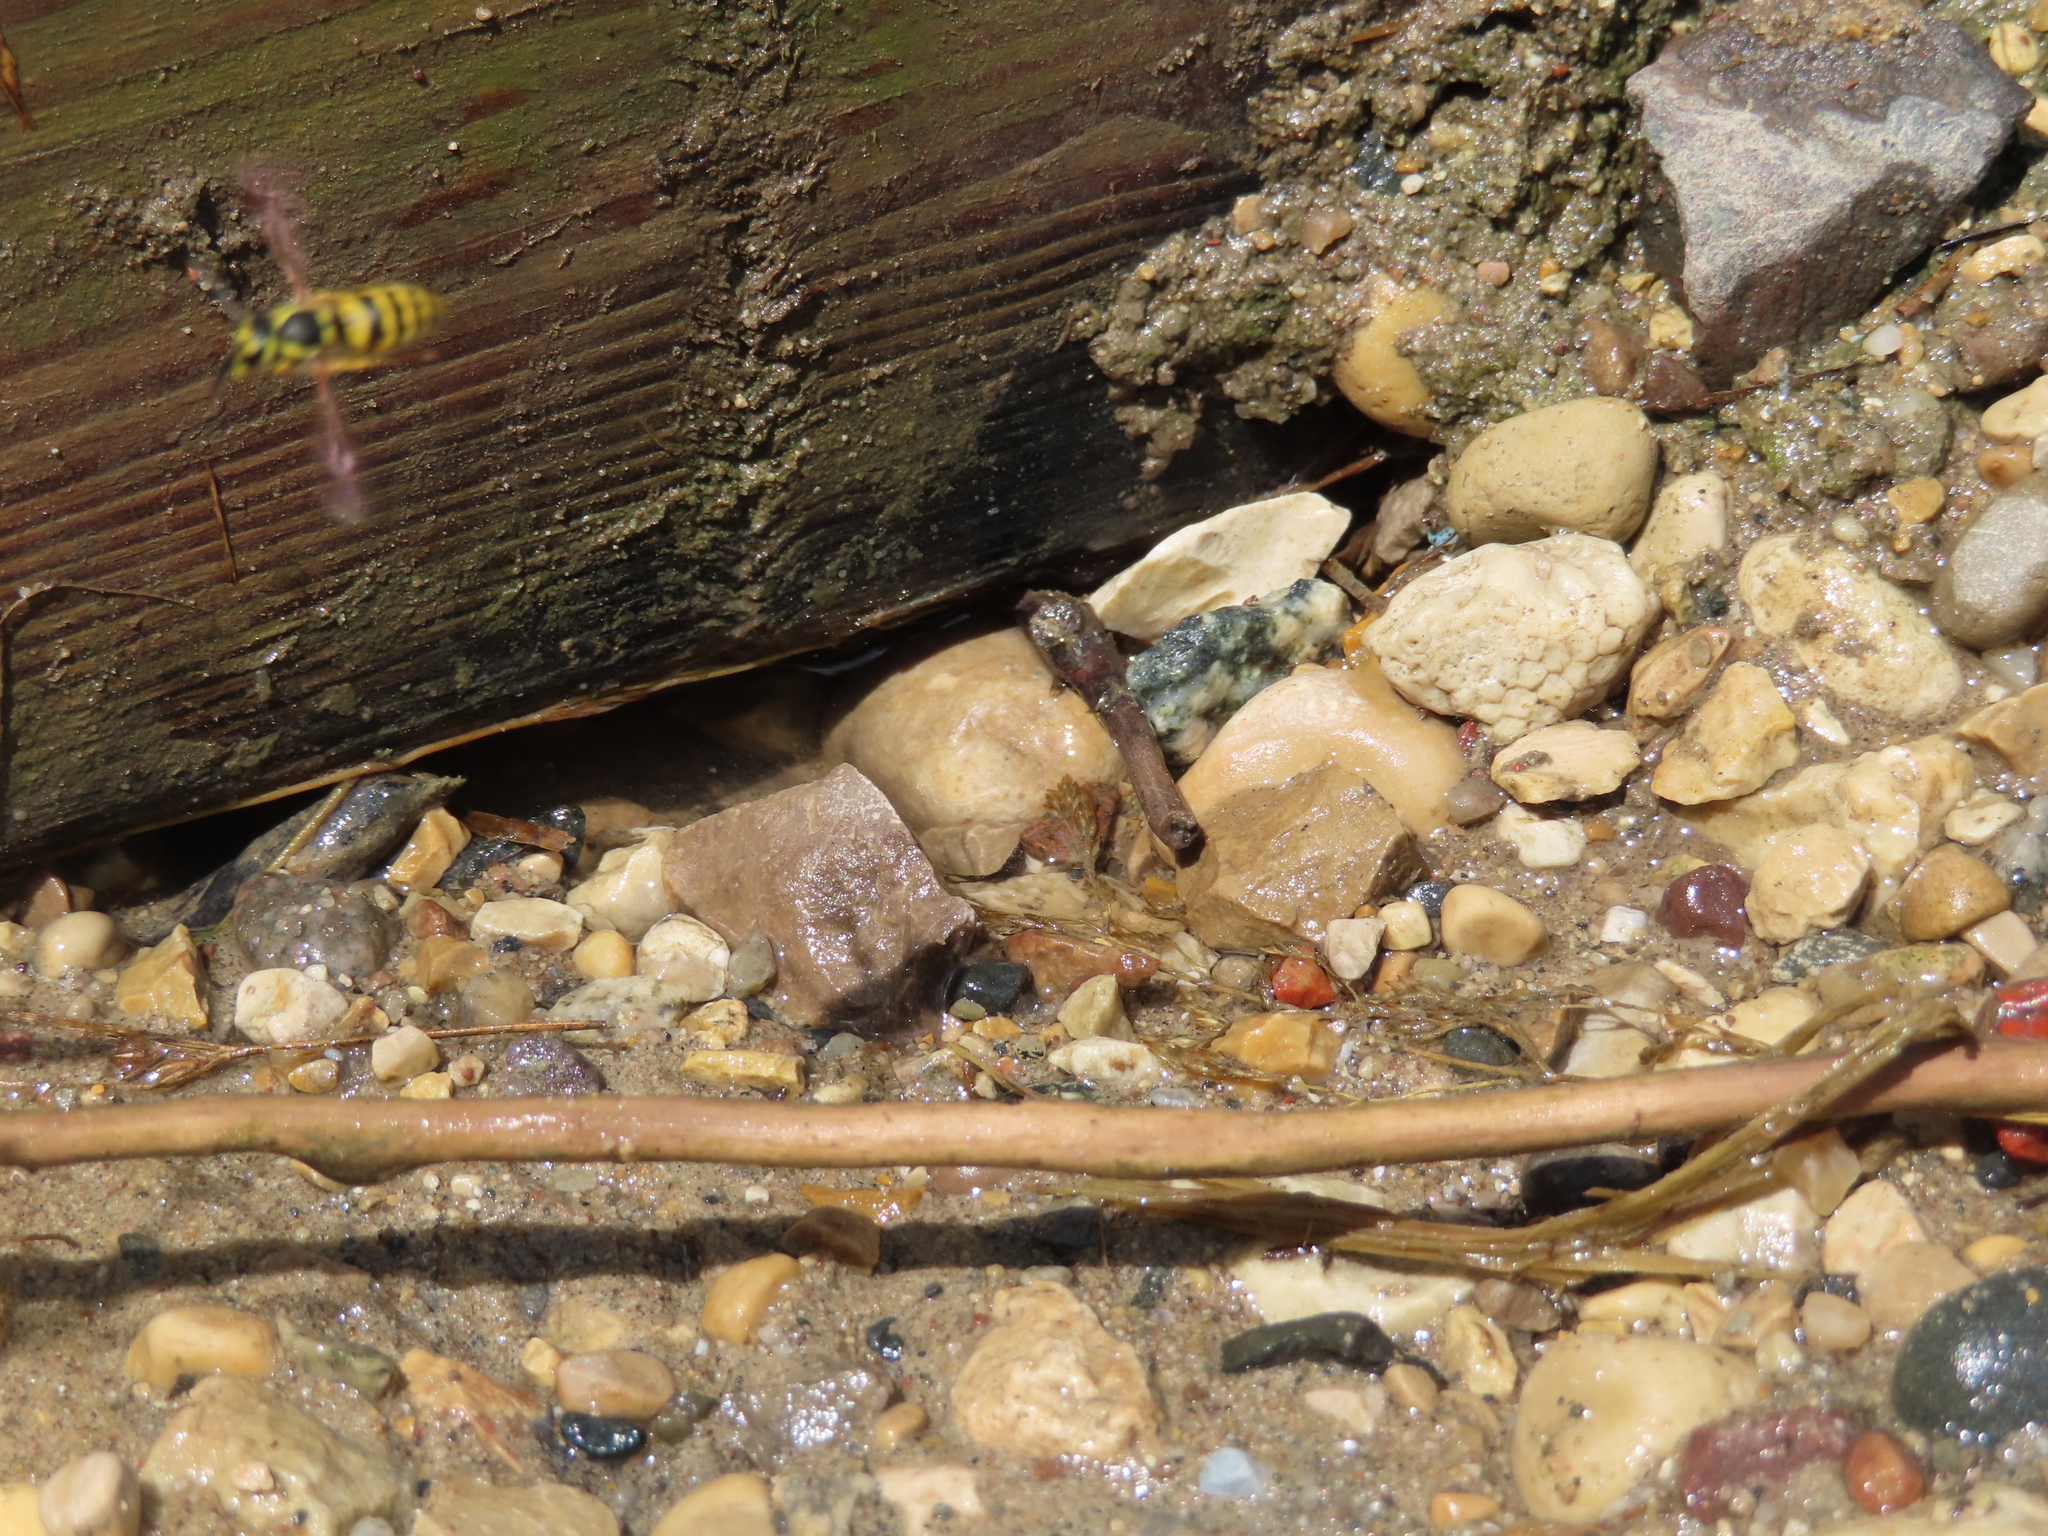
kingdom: Animalia
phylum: Arthropoda
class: Insecta
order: Hymenoptera
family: Vespidae
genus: Vespula
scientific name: Vespula maculifrons
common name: Eastern yellowjacket
